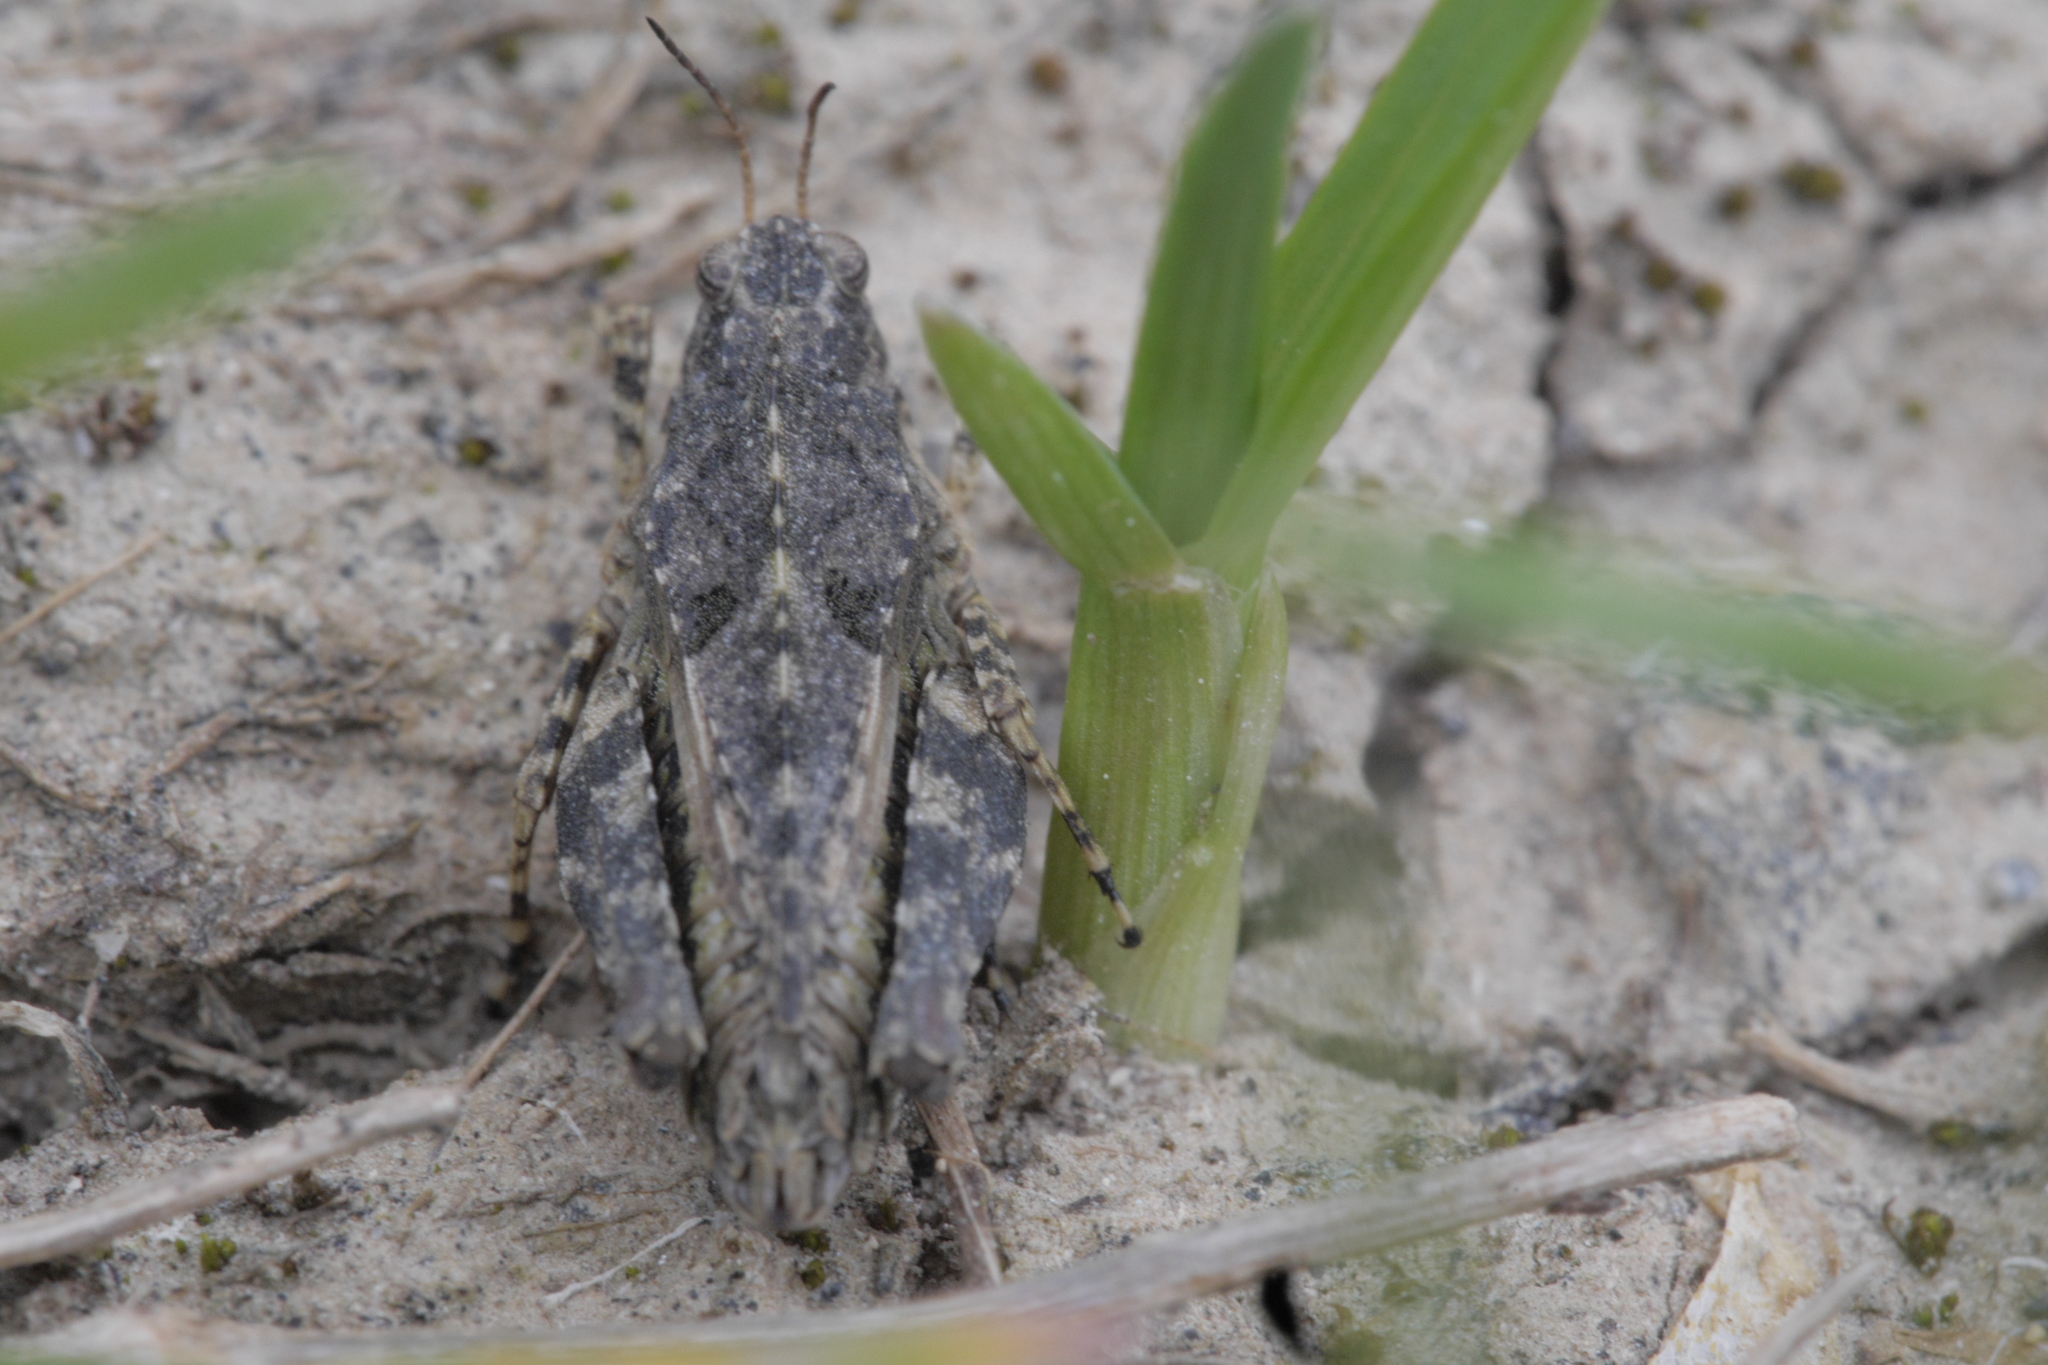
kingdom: Animalia
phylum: Arthropoda
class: Insecta
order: Orthoptera
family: Tetrigidae
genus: Tetrix
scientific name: Tetrix tenuicornis
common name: Long-horned groundhopper
